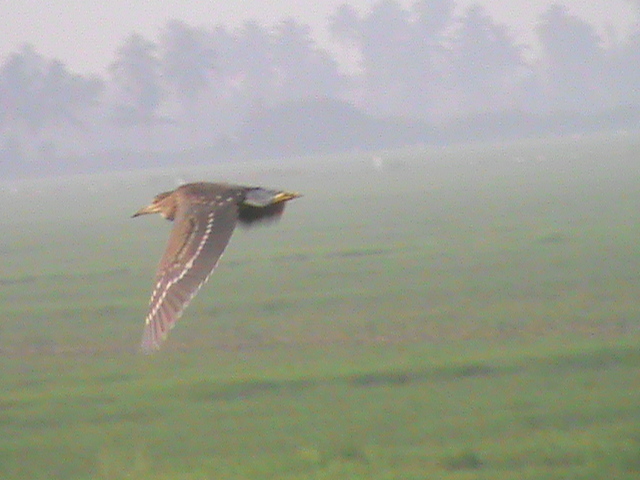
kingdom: Animalia
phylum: Chordata
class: Aves
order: Pelecaniformes
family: Ardeidae
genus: Nycticorax
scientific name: Nycticorax nycticorax
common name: Black-crowned night heron
